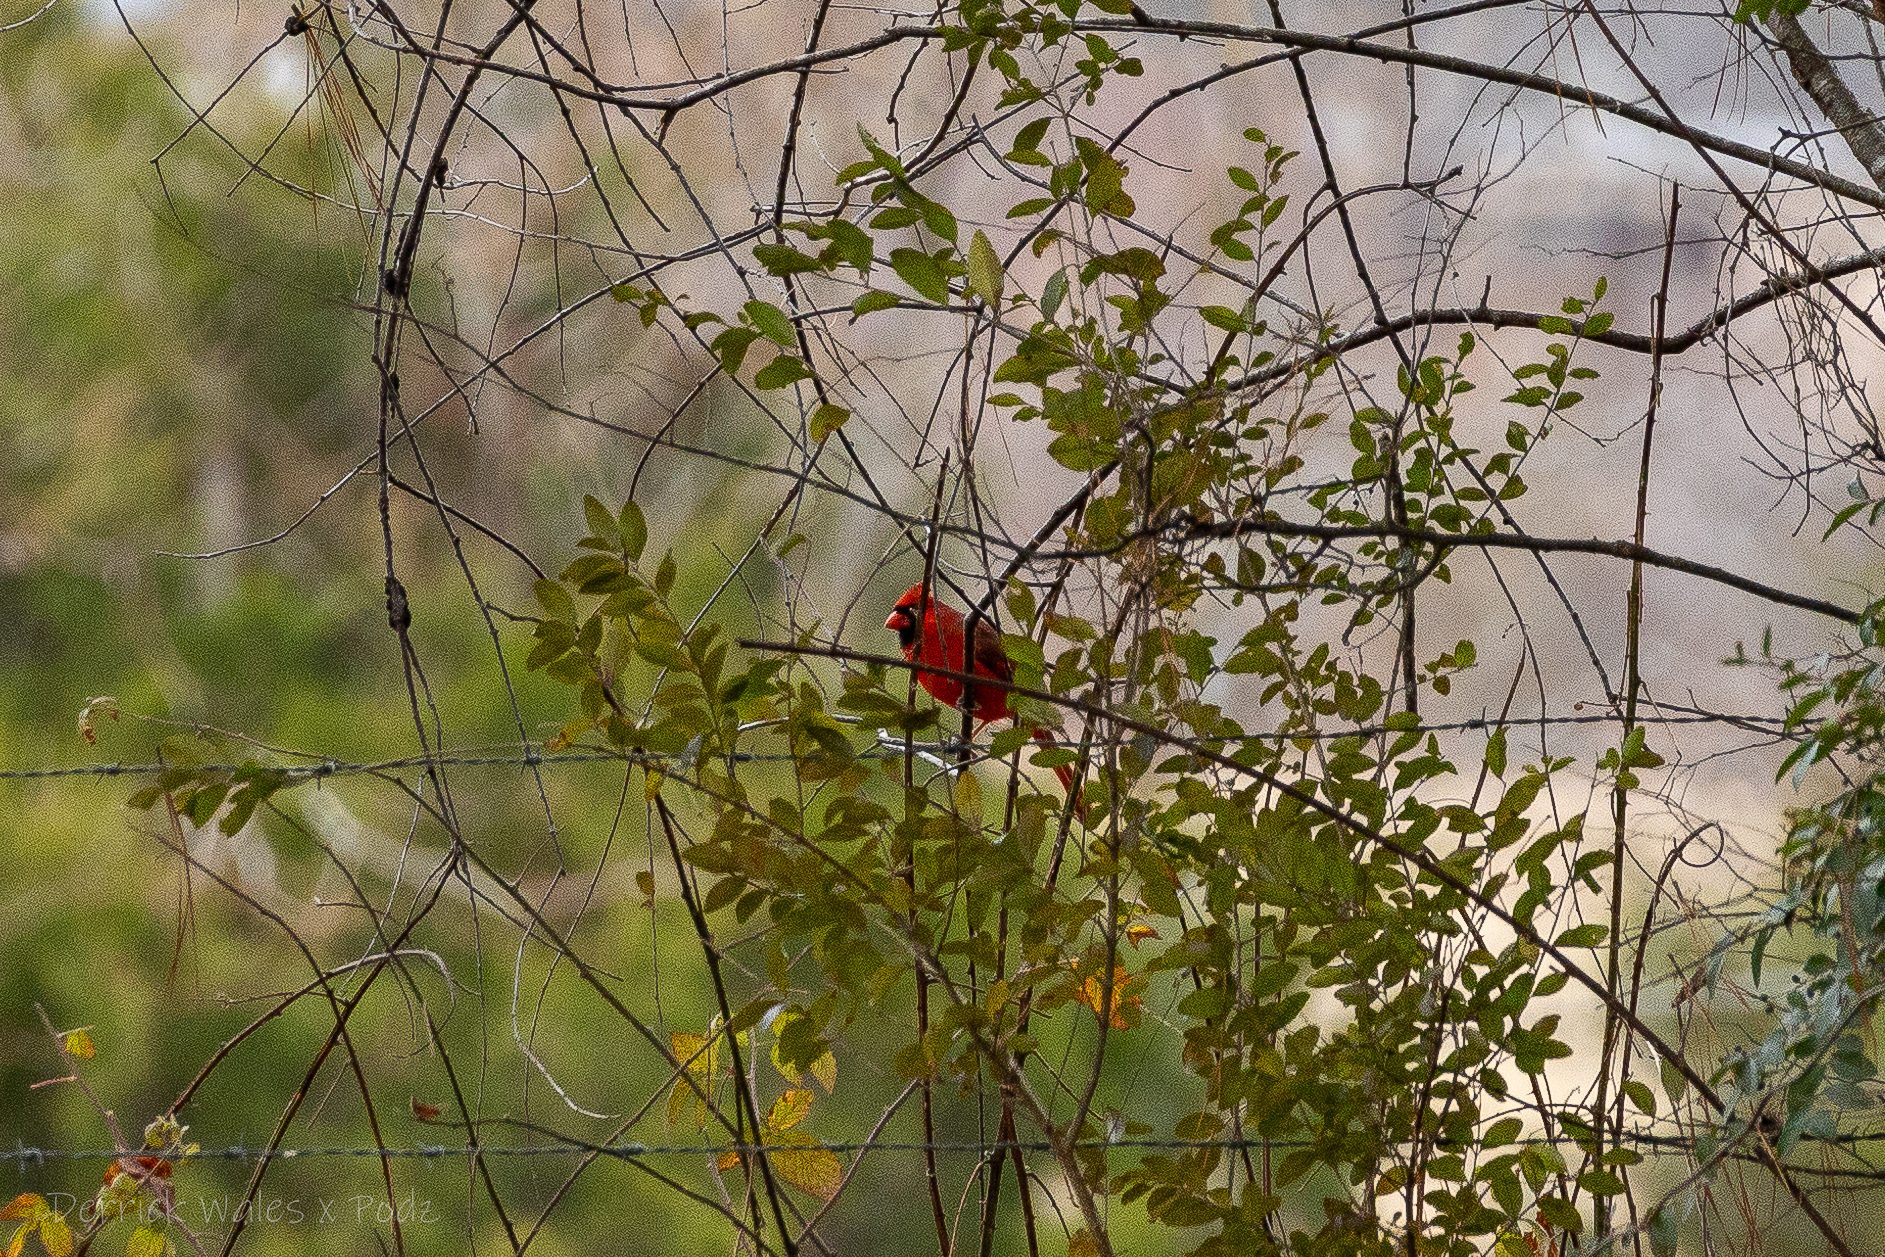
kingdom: Animalia
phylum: Chordata
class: Aves
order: Passeriformes
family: Cardinalidae
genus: Cardinalis
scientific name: Cardinalis cardinalis
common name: Northern cardinal
